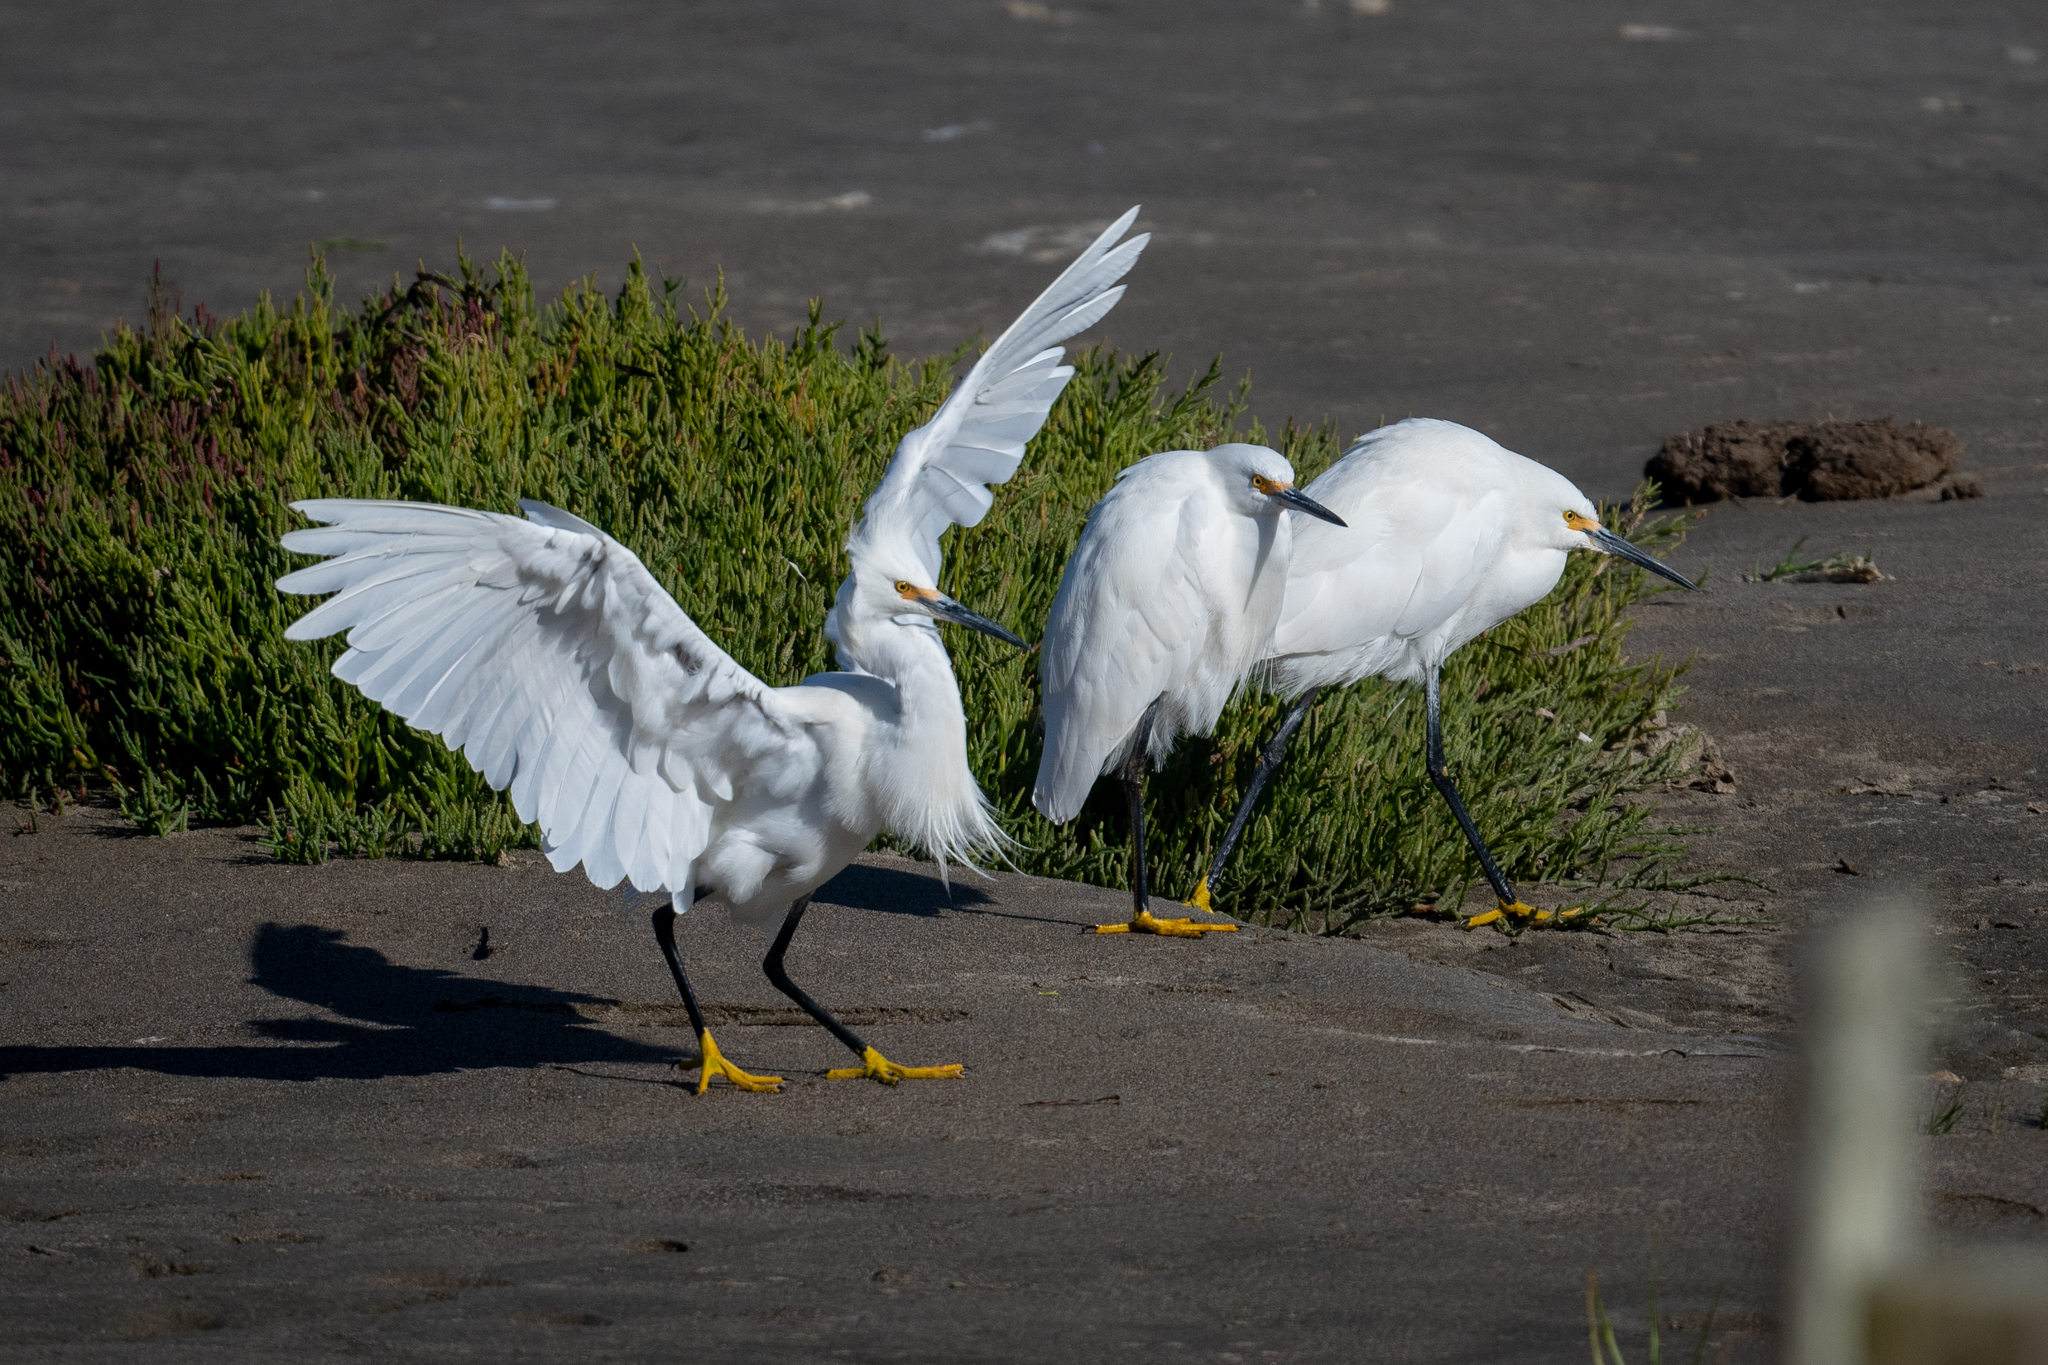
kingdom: Animalia
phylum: Chordata
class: Aves
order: Pelecaniformes
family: Ardeidae
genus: Egretta
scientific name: Egretta thula
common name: Snowy egret
